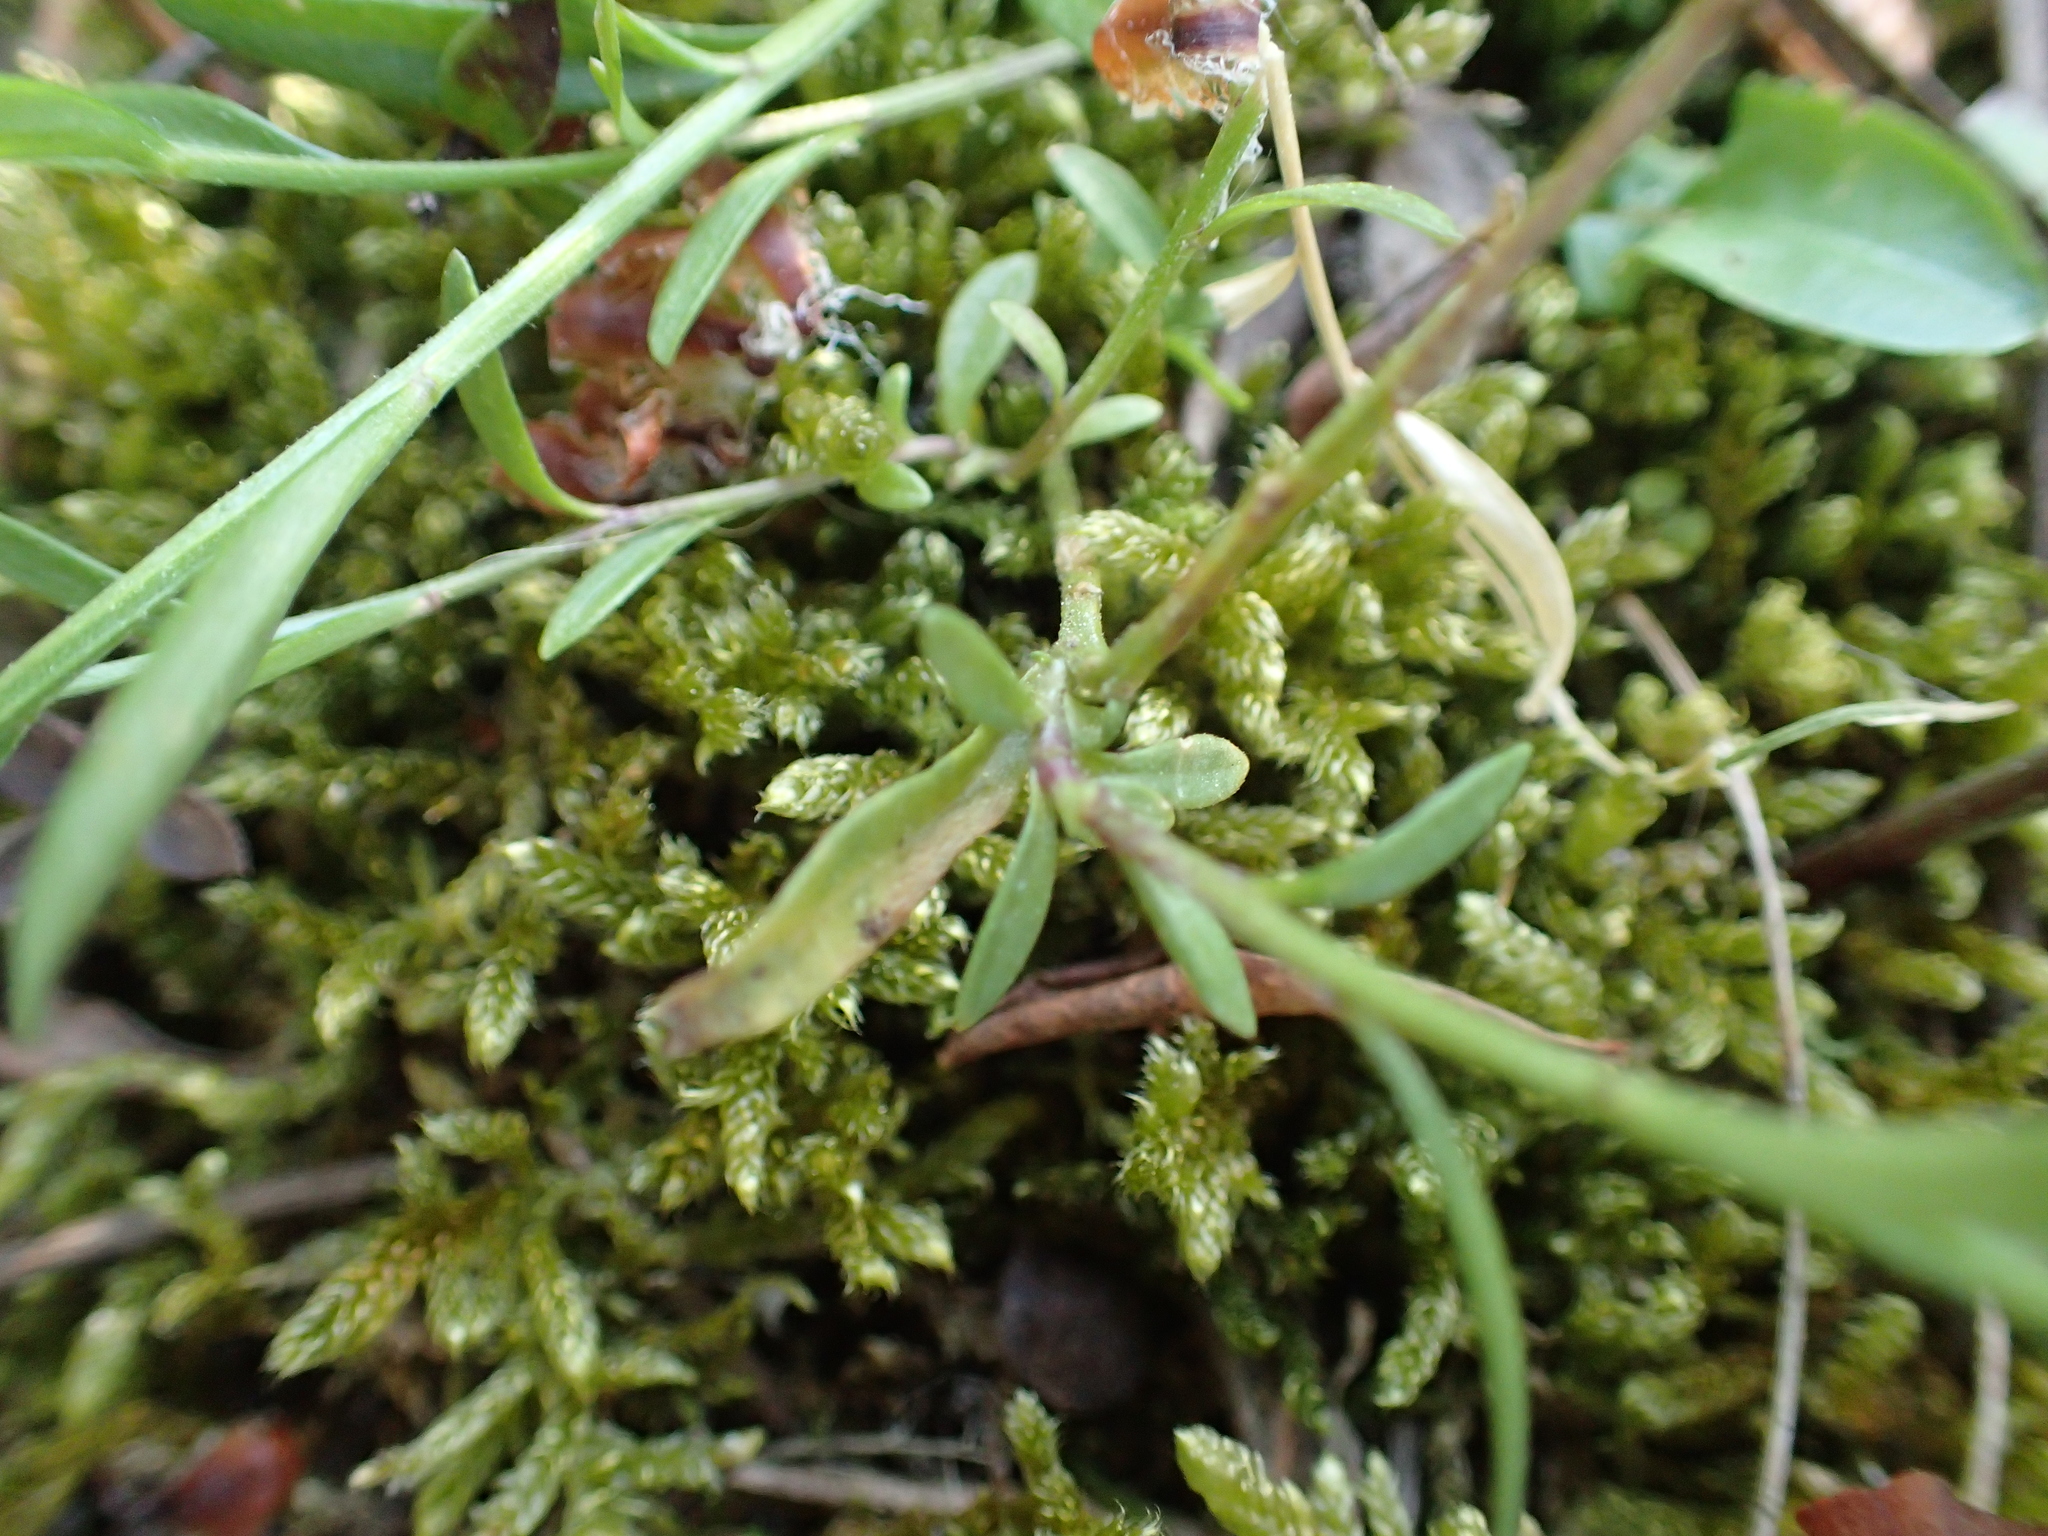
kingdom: Plantae
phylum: Tracheophyta
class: Magnoliopsida
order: Fabales
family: Polygalaceae
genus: Polygala
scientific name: Polygala vulgaris
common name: Common milkwort
